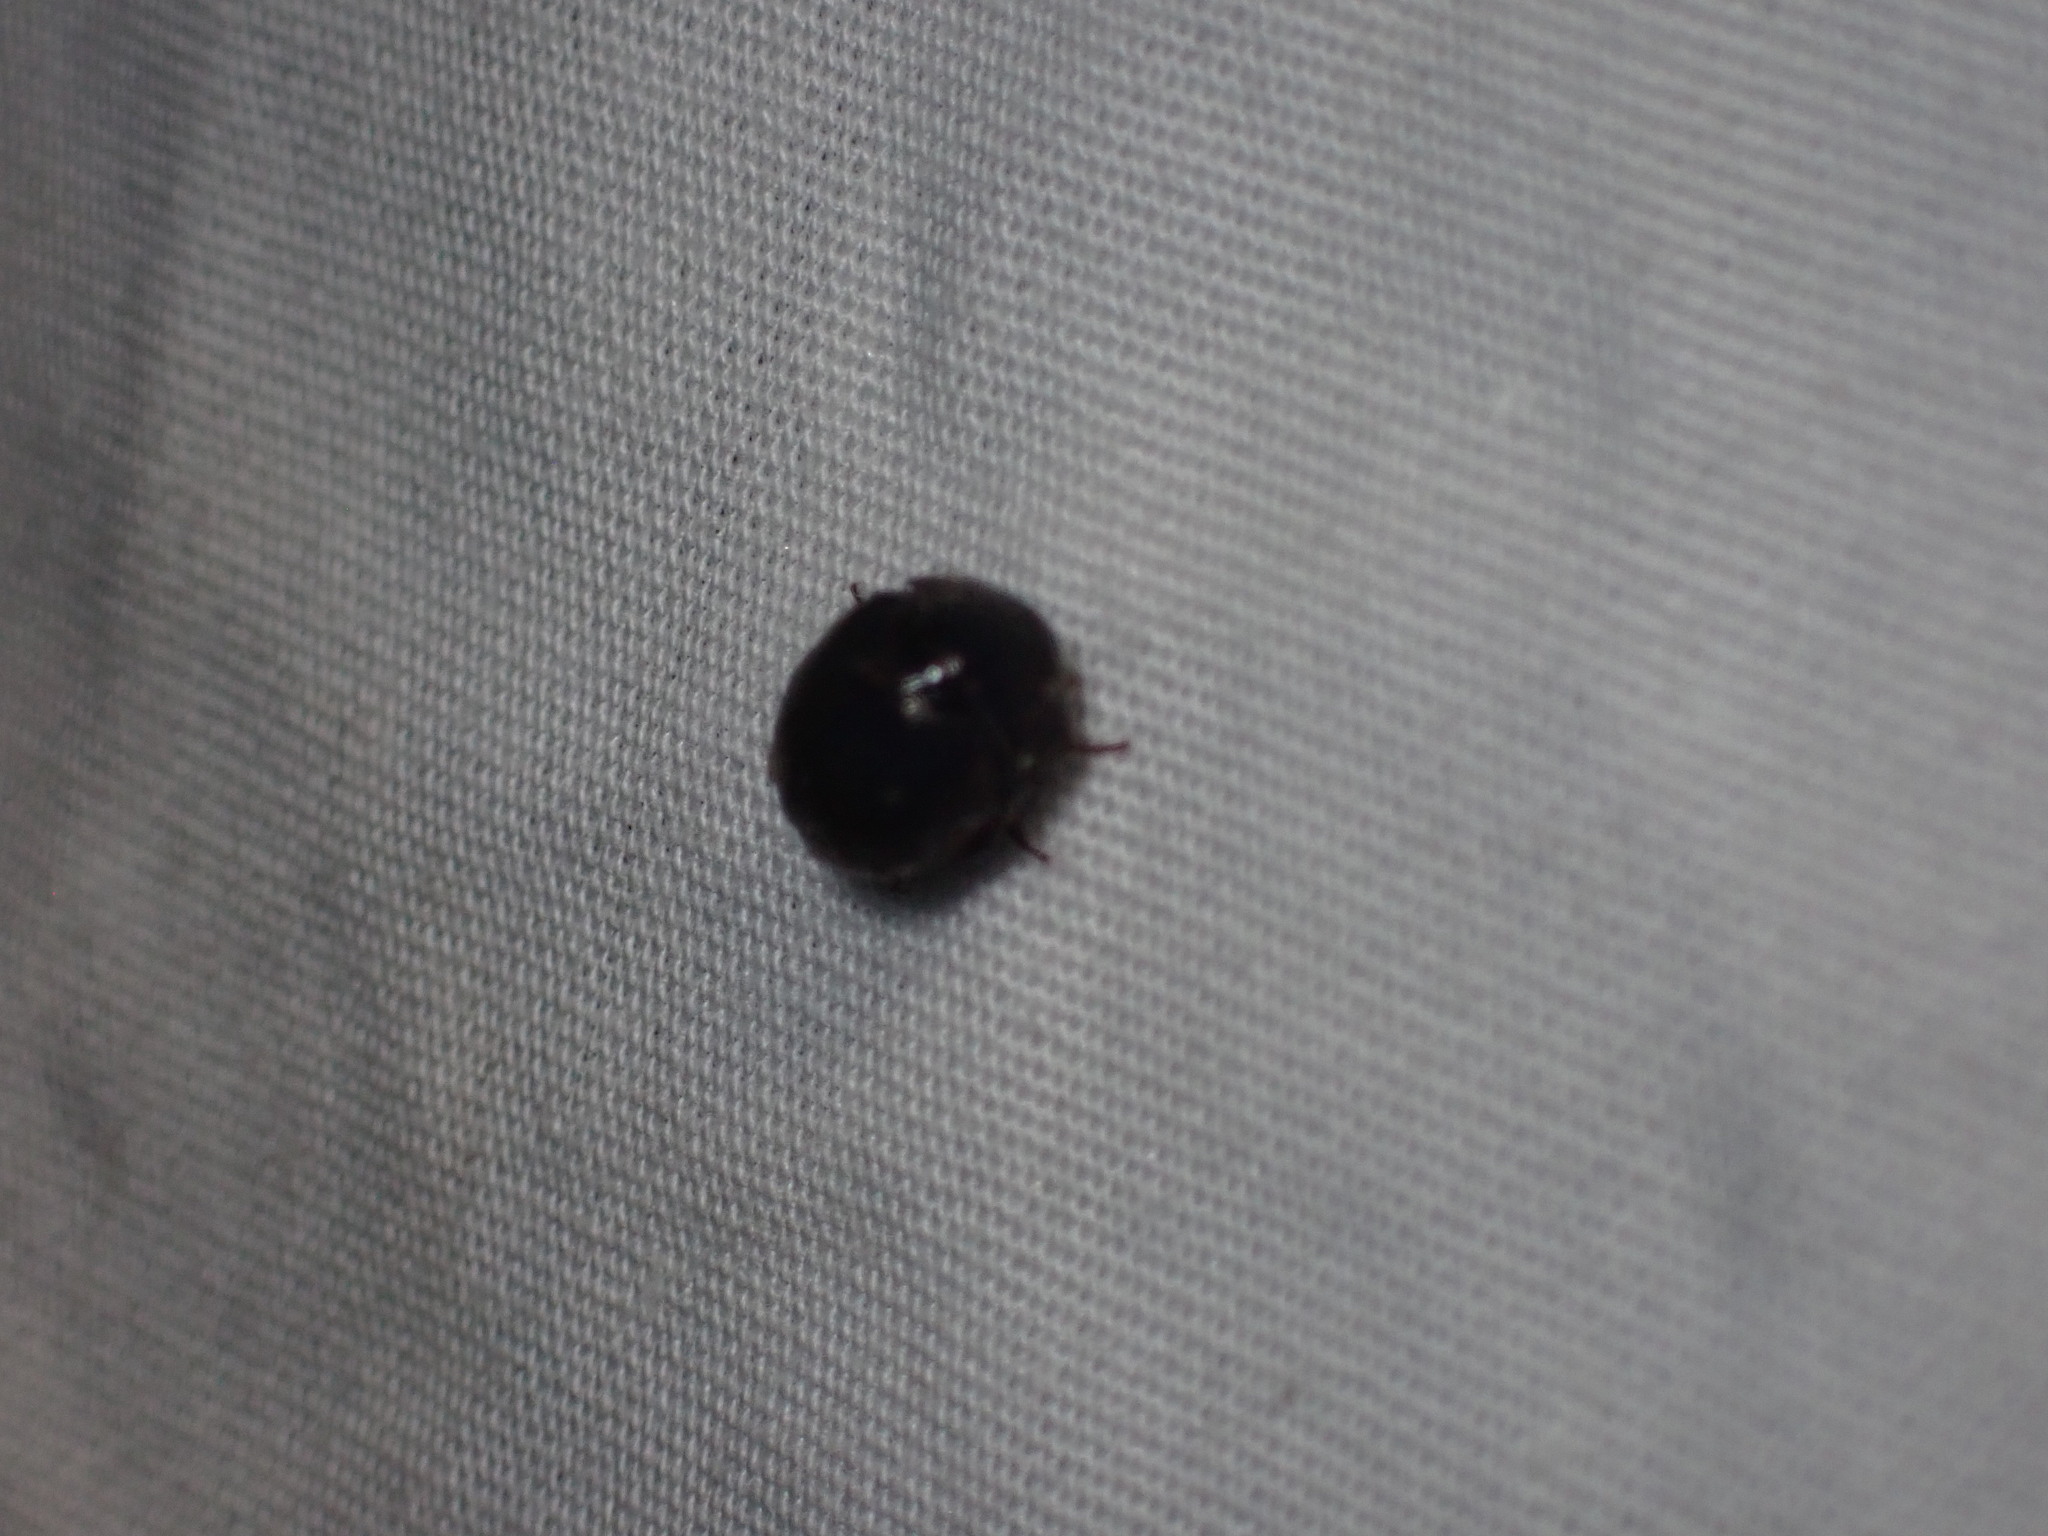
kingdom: Animalia
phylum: Arthropoda
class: Insecta
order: Coleoptera
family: Hybosoridae
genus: Germarostes
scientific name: Germarostes globosus
